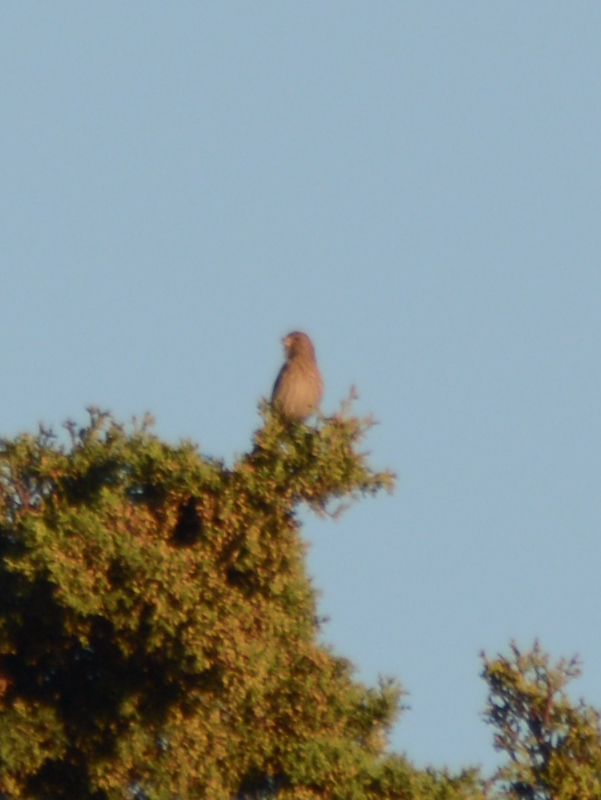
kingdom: Animalia
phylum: Chordata
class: Aves
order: Passeriformes
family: Fringillidae
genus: Haemorhous
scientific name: Haemorhous mexicanus
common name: House finch
